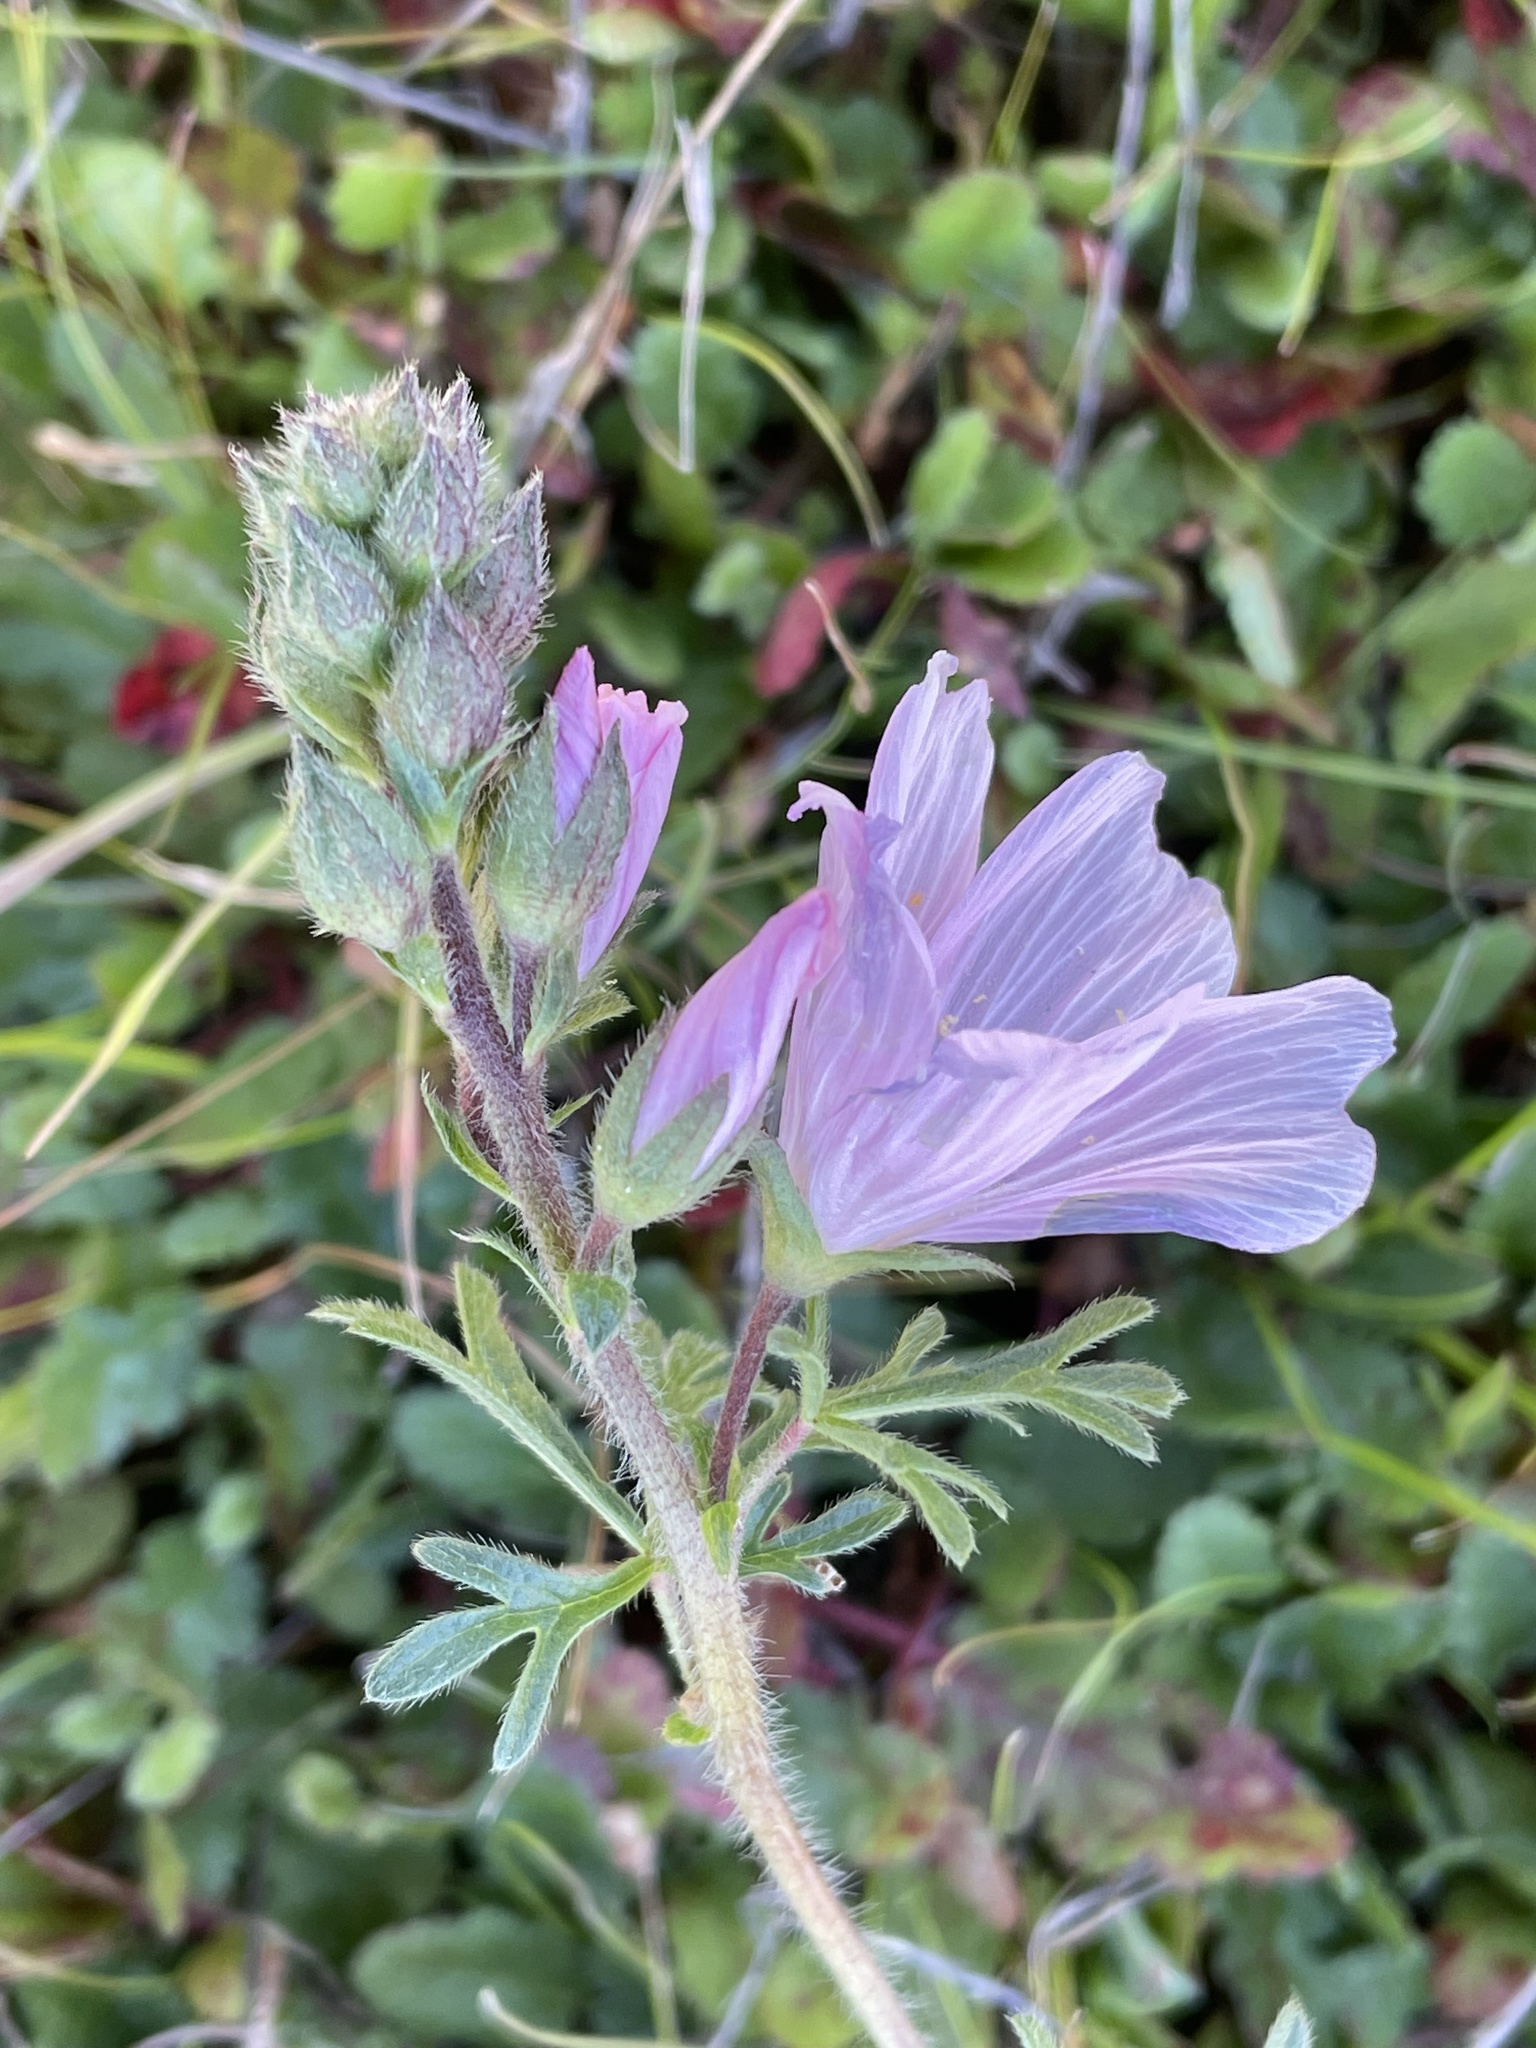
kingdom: Plantae
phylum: Tracheophyta
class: Magnoliopsida
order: Malvales
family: Malvaceae
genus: Sidalcea
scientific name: Sidalcea malviflora
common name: Greek mallow
